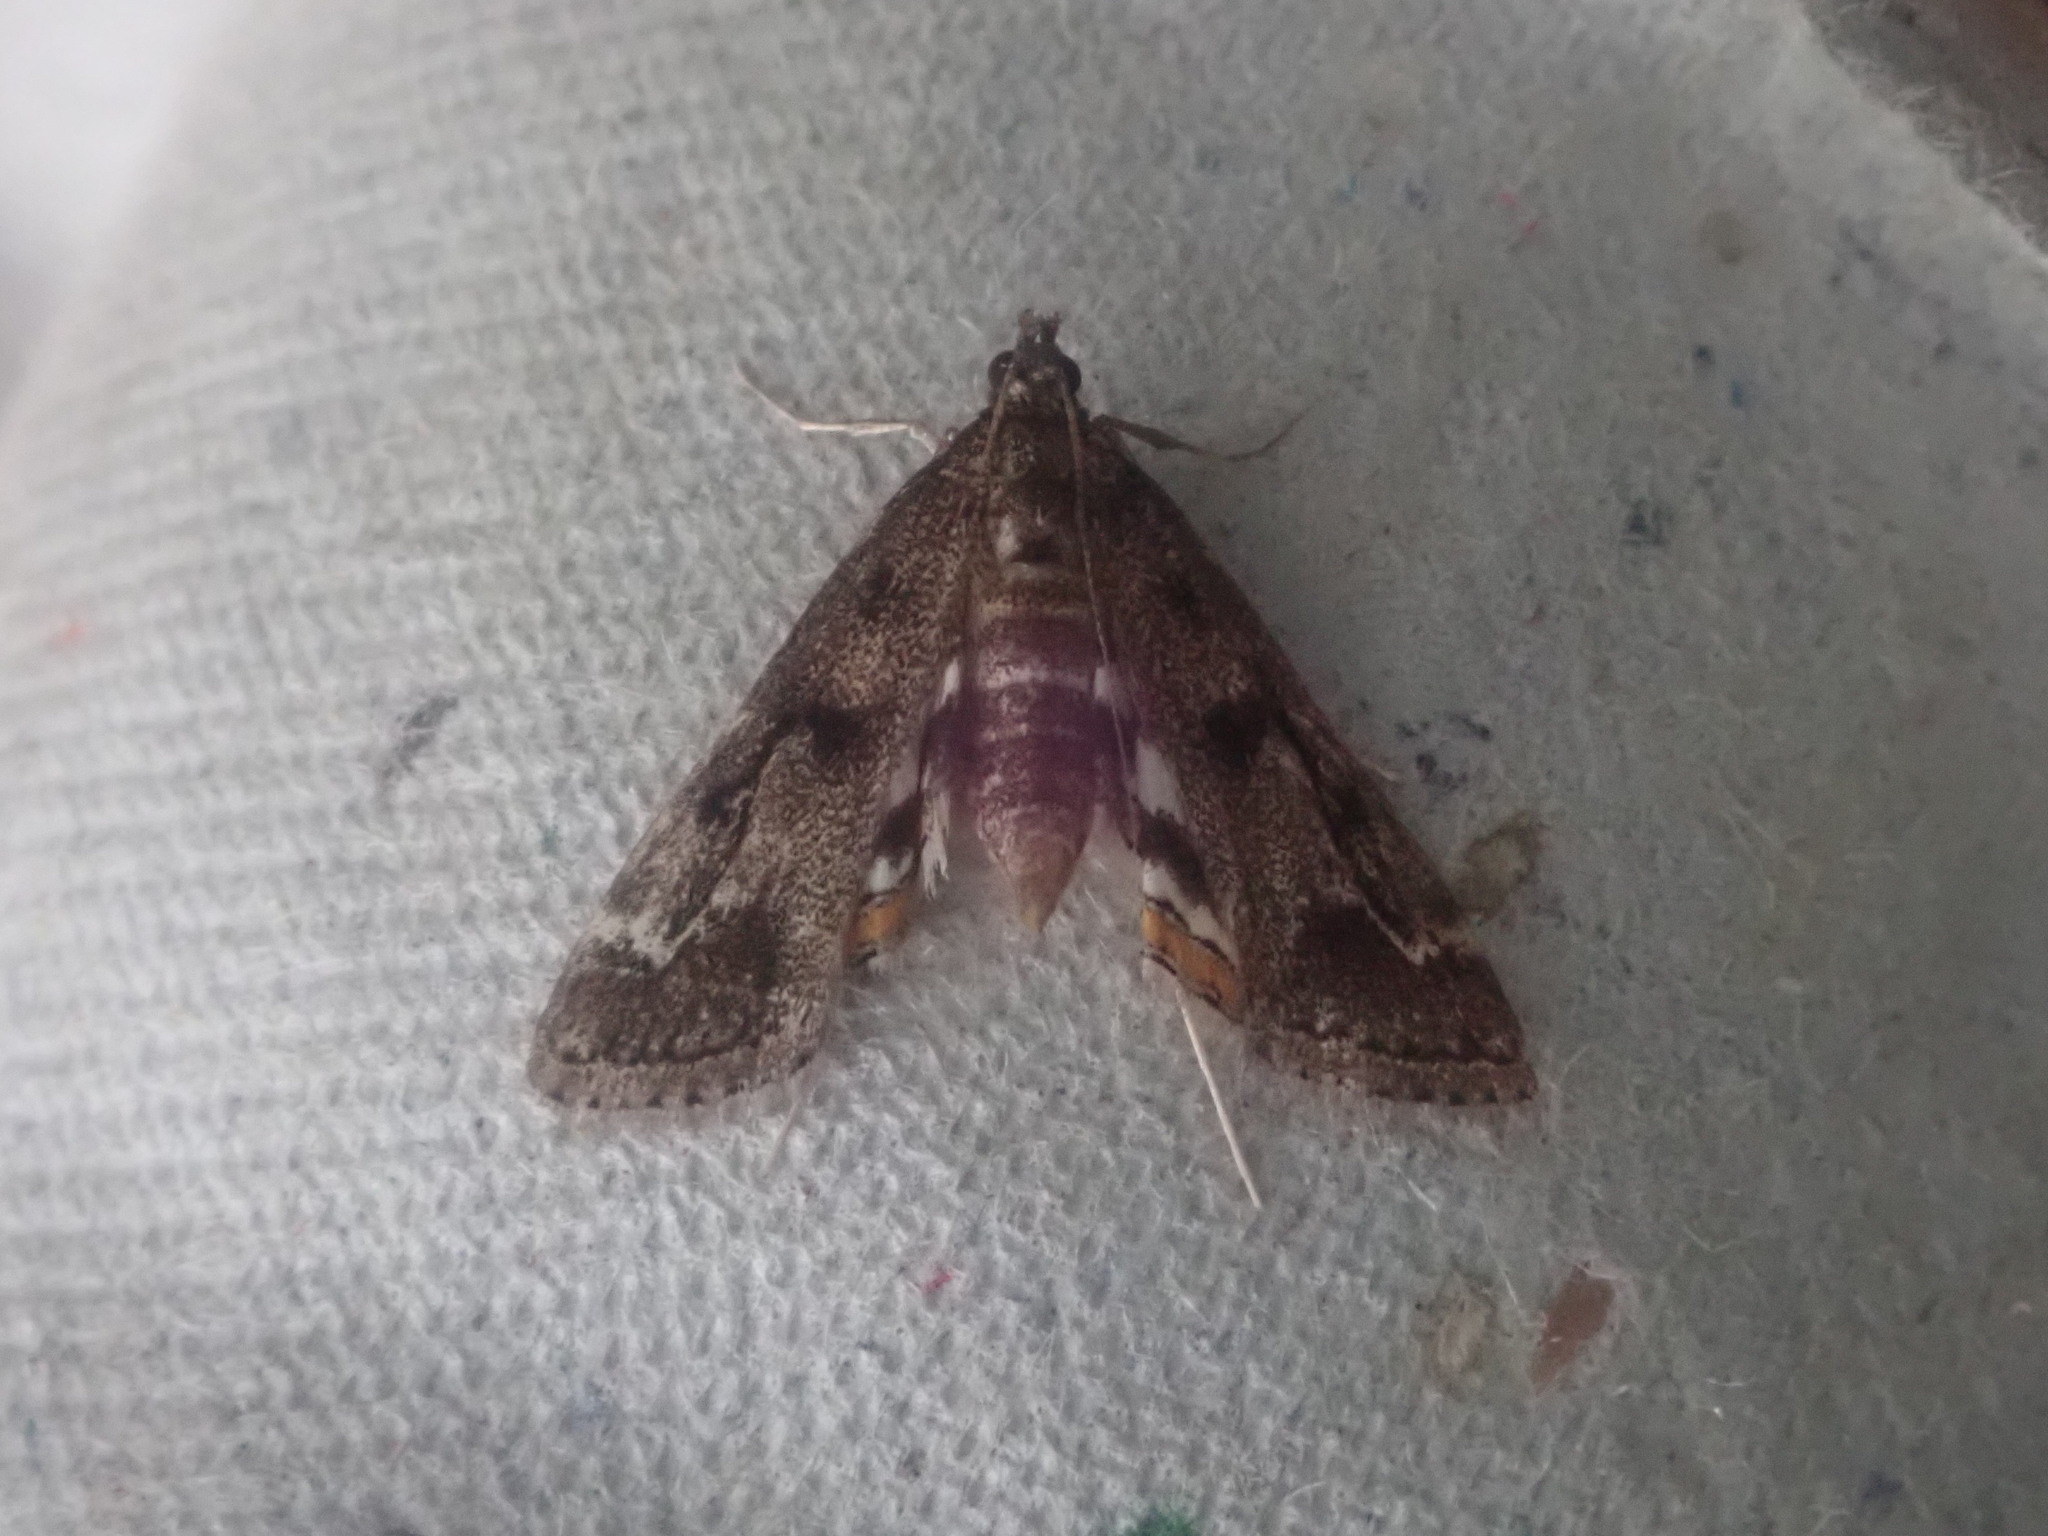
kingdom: Animalia
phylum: Arthropoda
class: Insecta
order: Lepidoptera
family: Crambidae
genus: Parapoynx
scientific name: Parapoynx obscuralis
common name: American china-mark
